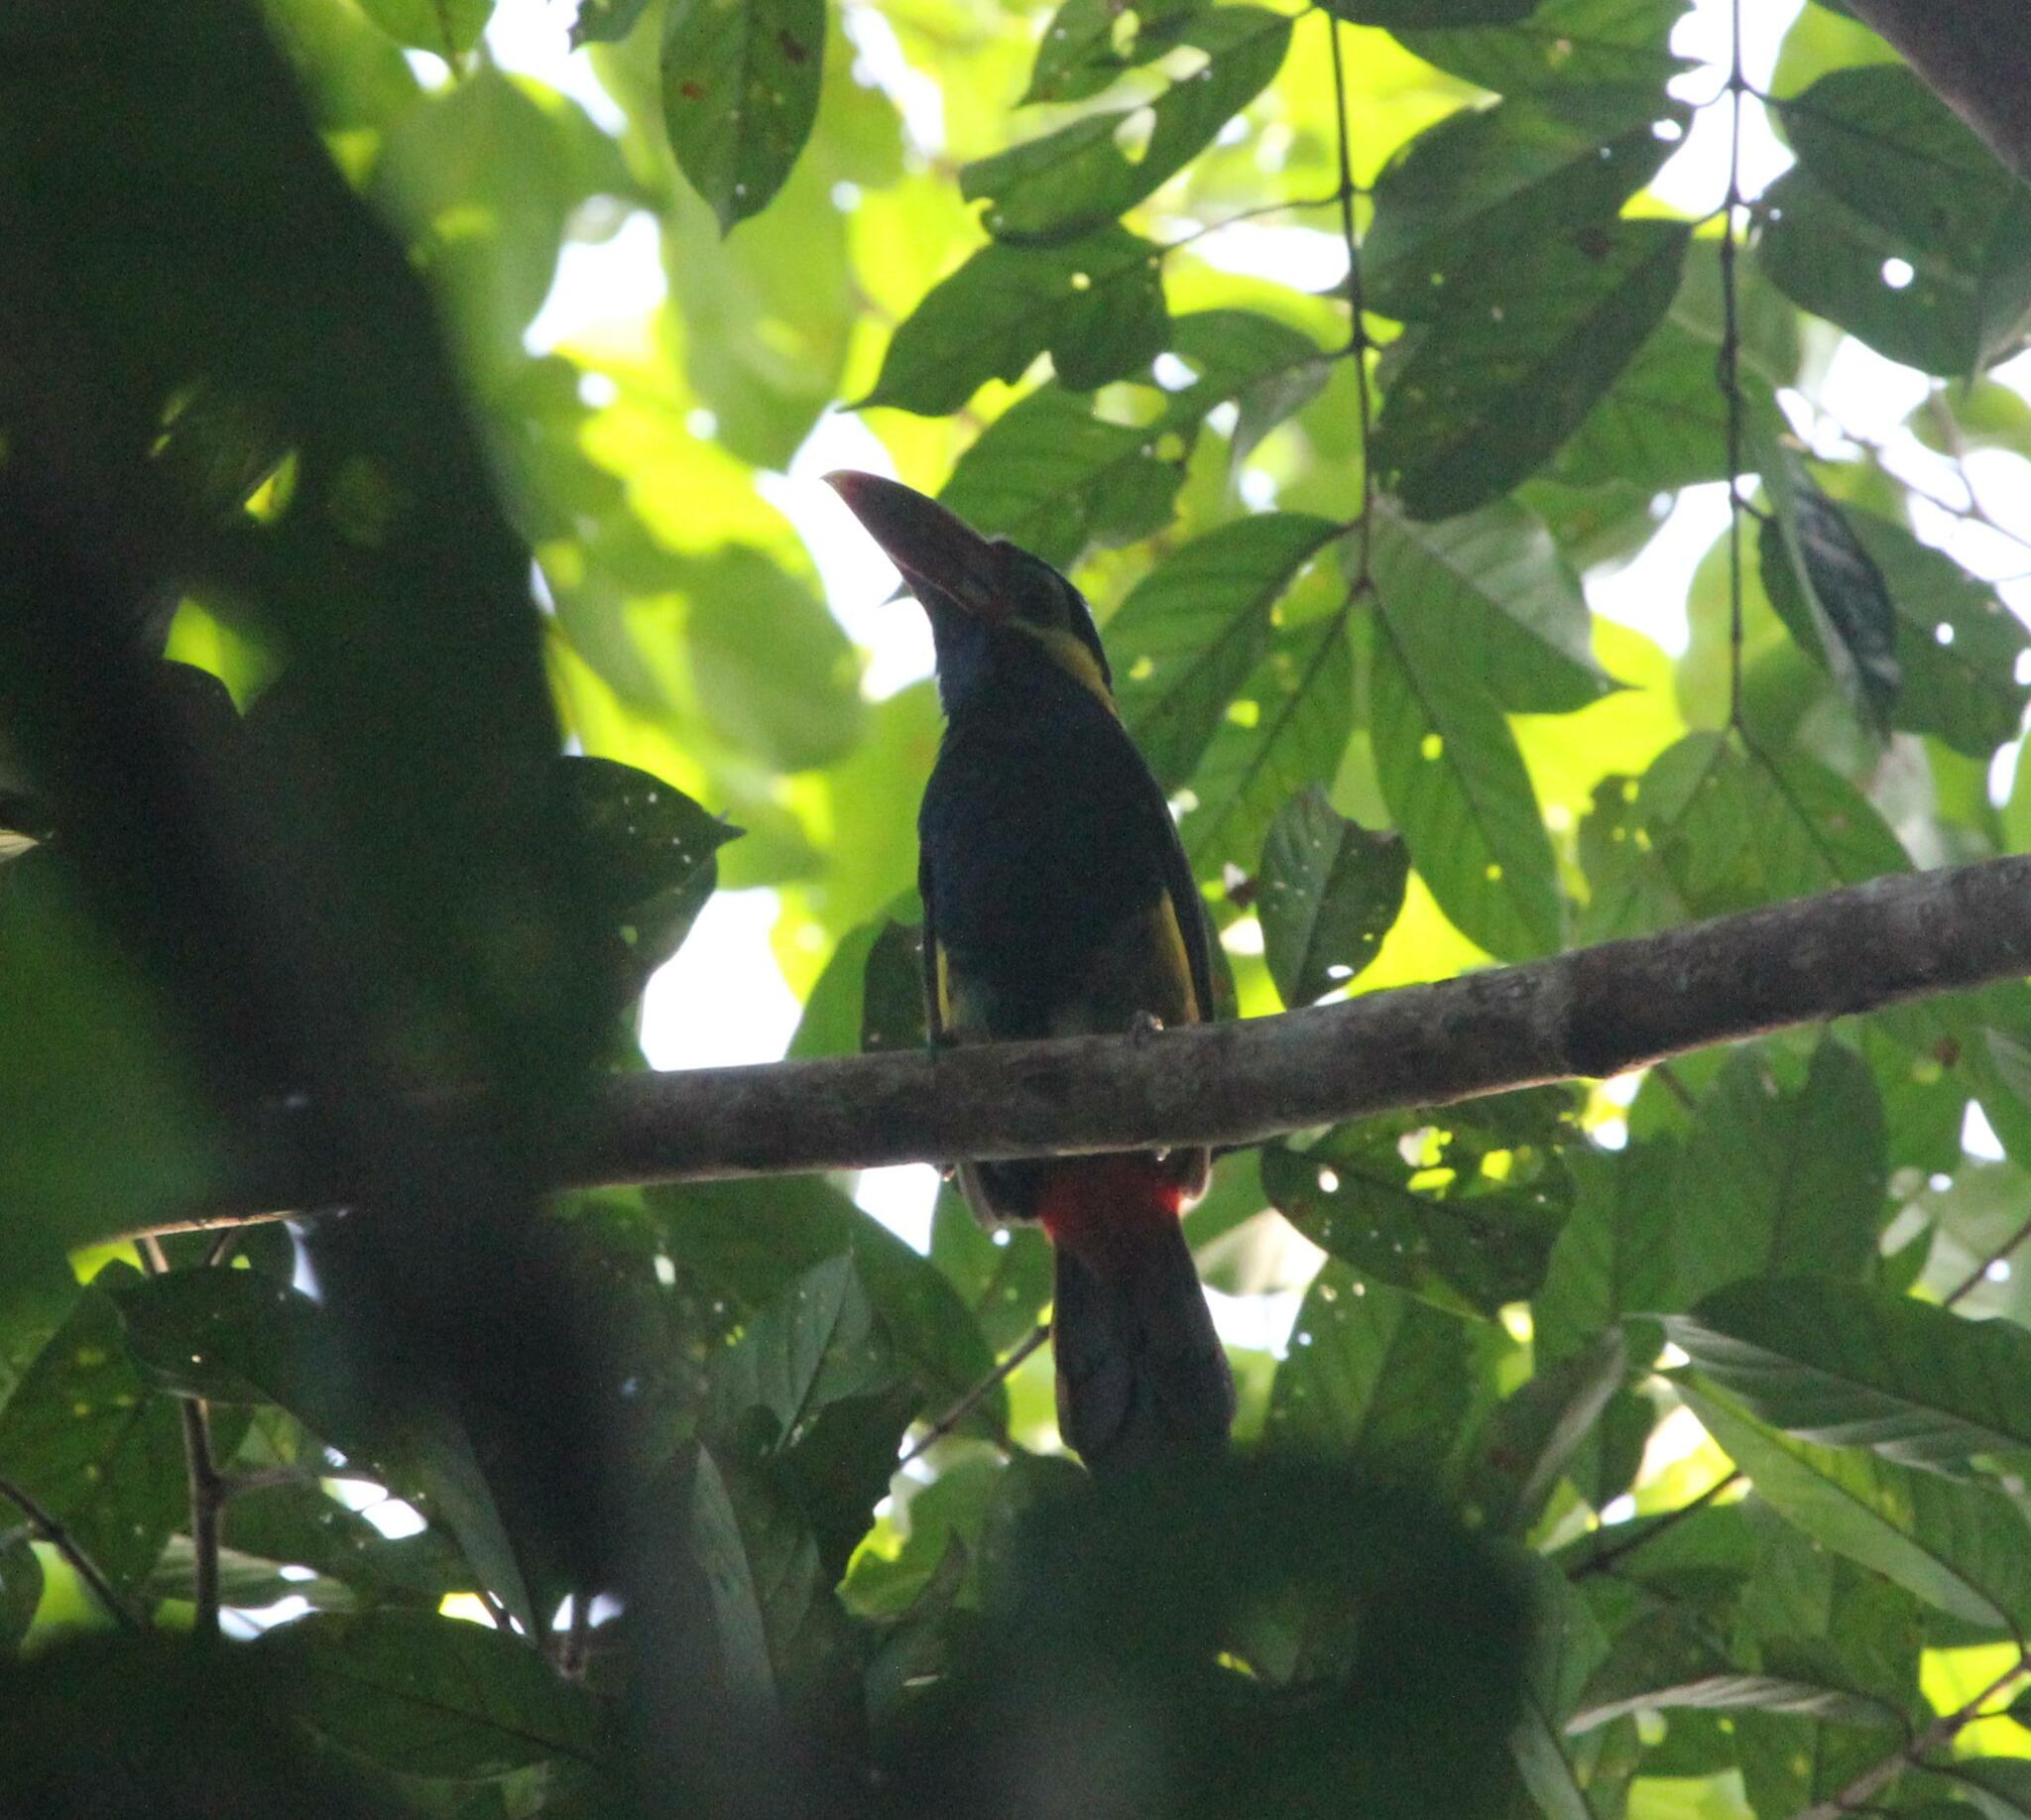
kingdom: Animalia
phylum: Chordata
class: Aves
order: Piciformes
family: Ramphastidae
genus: Selenidera
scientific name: Selenidera nattereri
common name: Tawny-tufted toucanet
